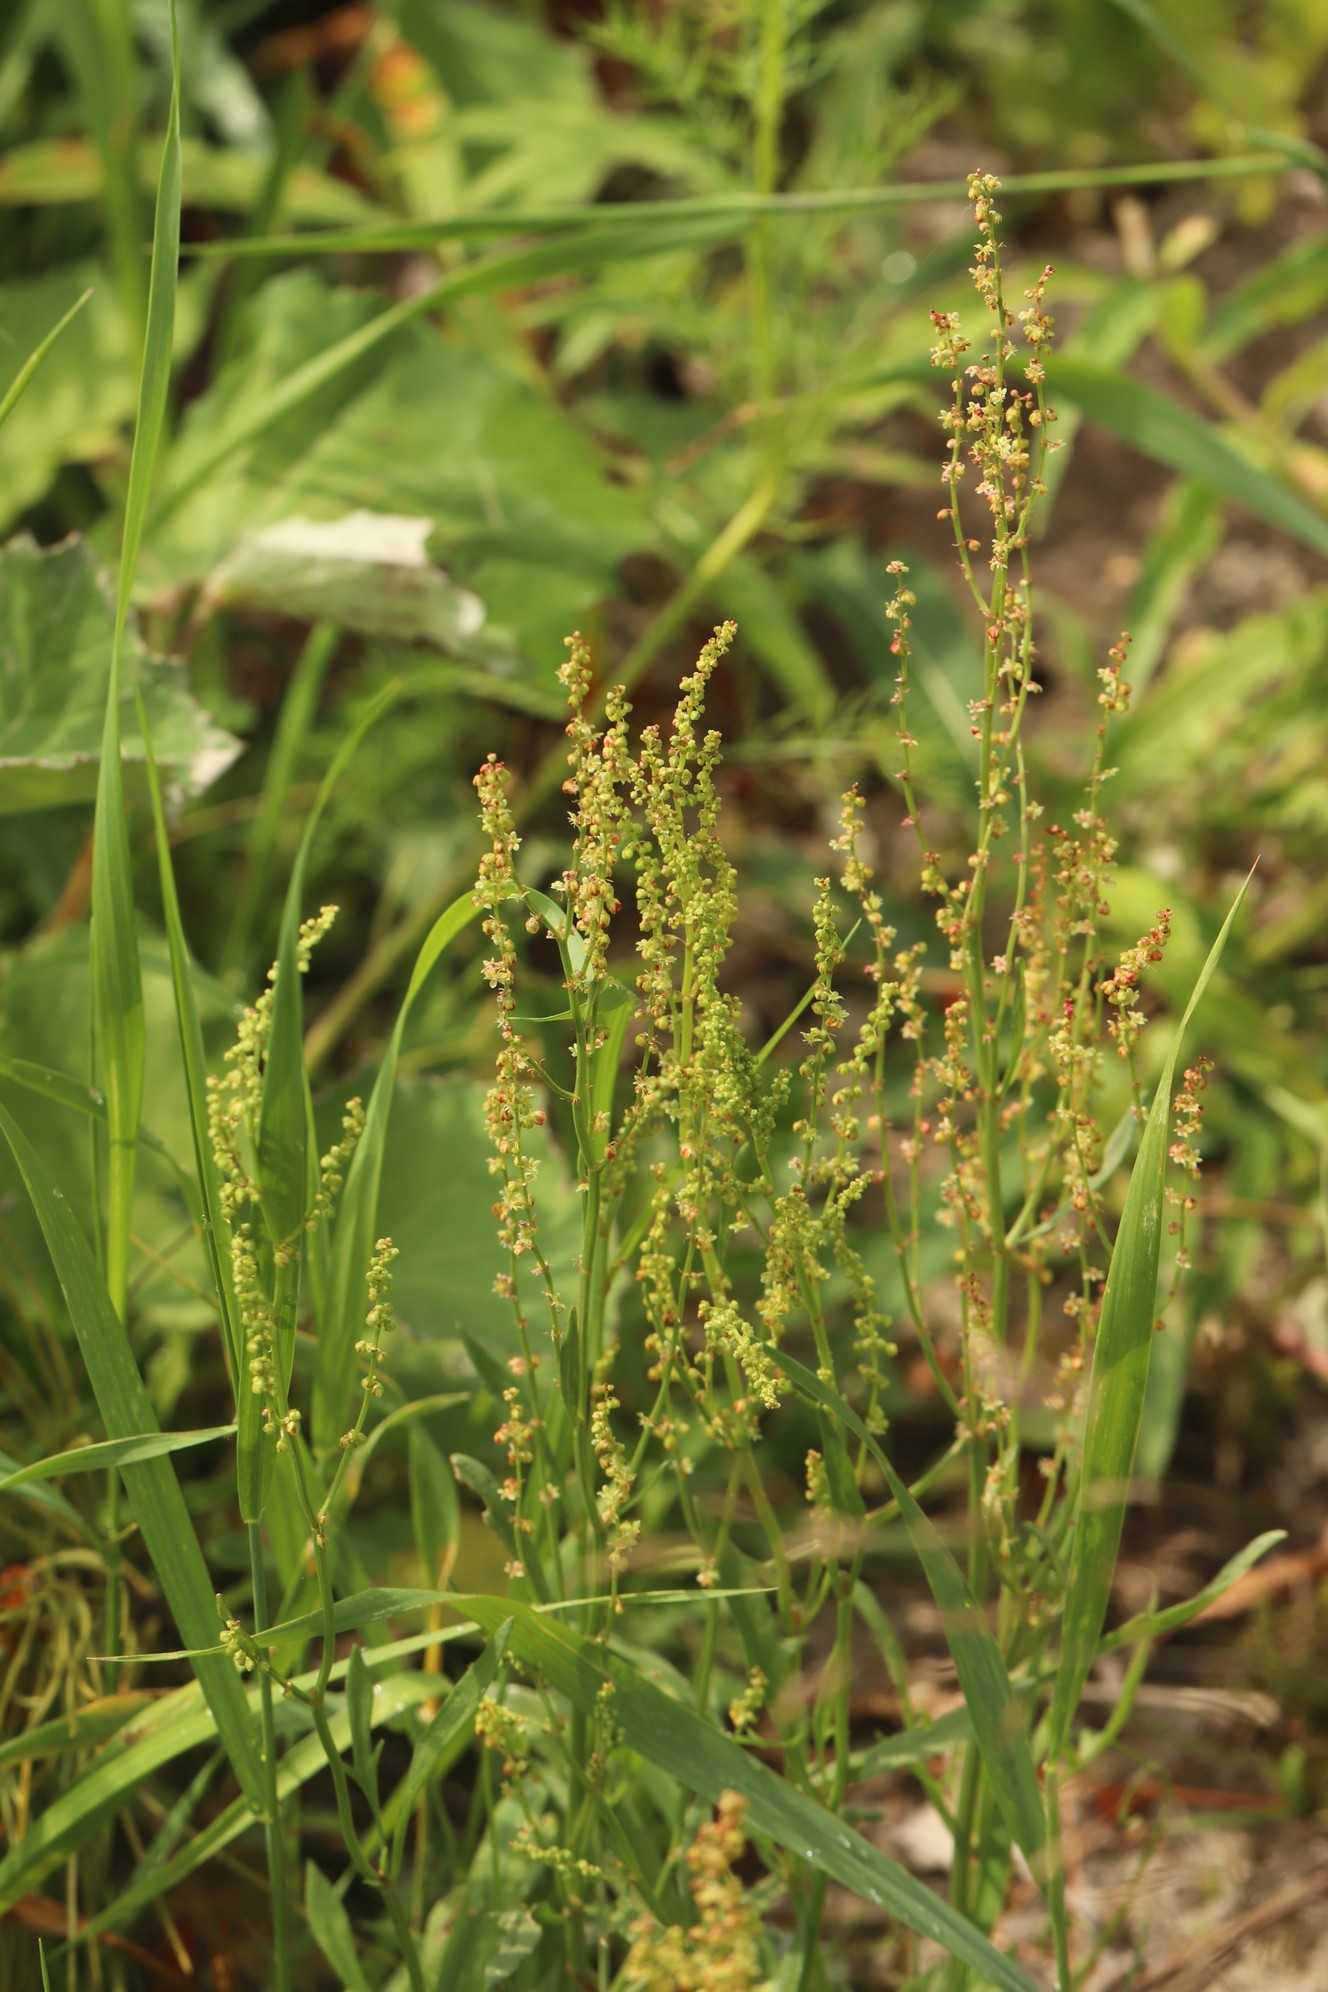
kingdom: Plantae
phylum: Tracheophyta
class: Magnoliopsida
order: Caryophyllales
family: Polygonaceae
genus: Rumex
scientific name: Rumex acetosella
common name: Common sheep sorrel
